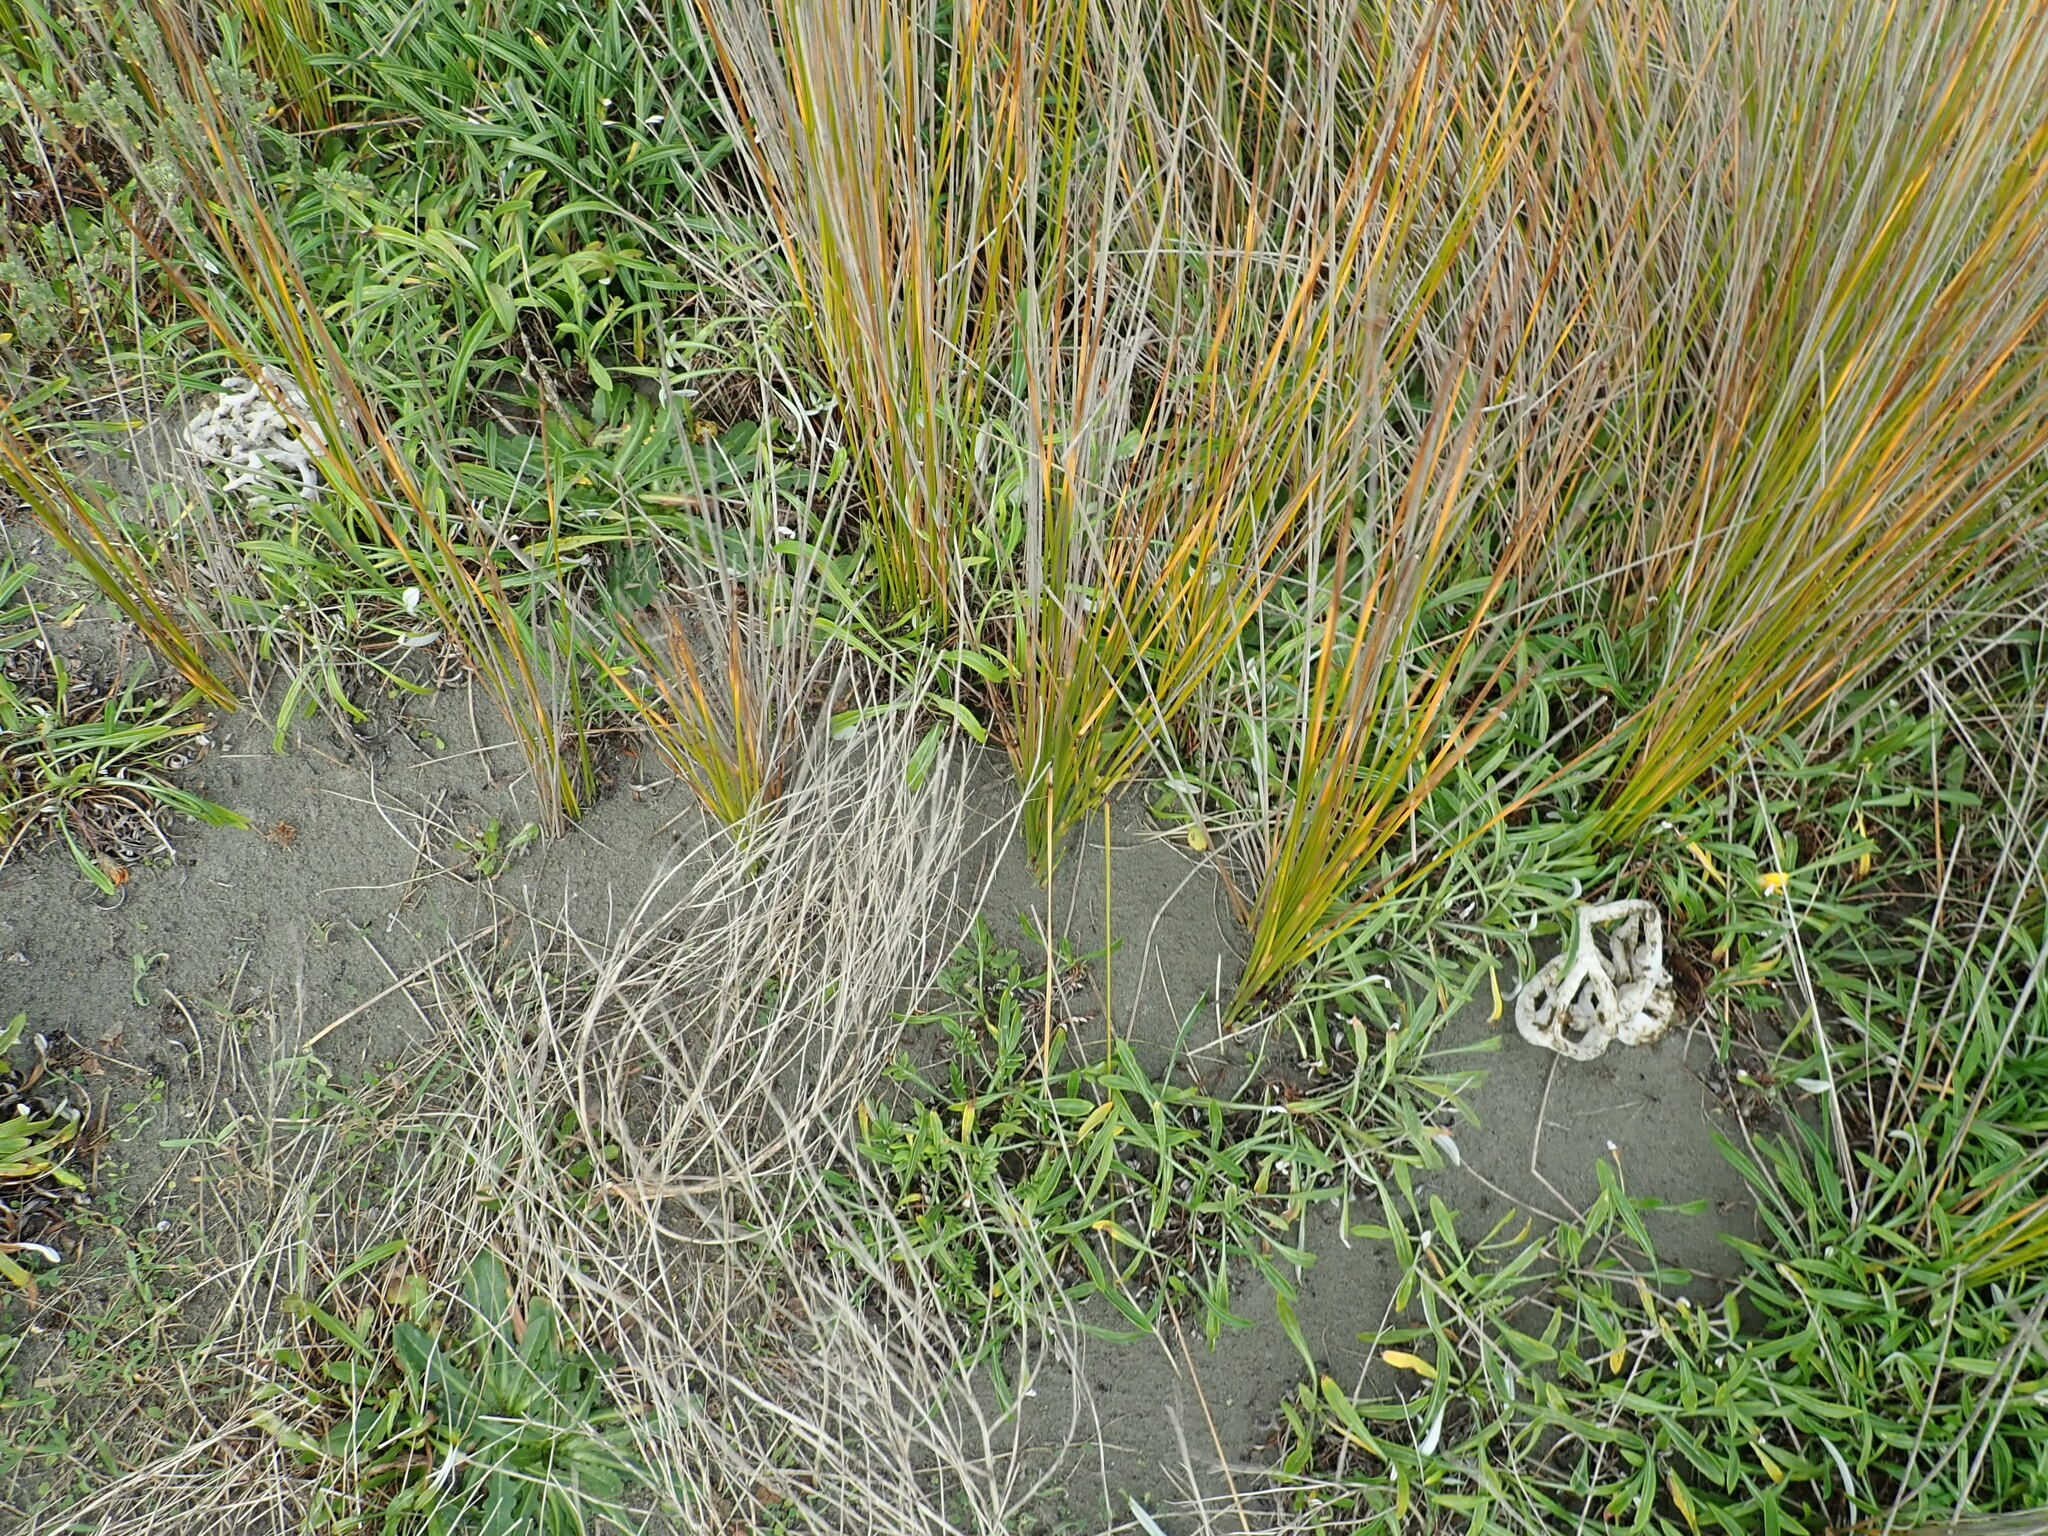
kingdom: Fungi
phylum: Basidiomycota
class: Agaricomycetes
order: Phallales
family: Phallaceae
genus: Ileodictyon
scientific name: Ileodictyon cibarium
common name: Basket fungus
